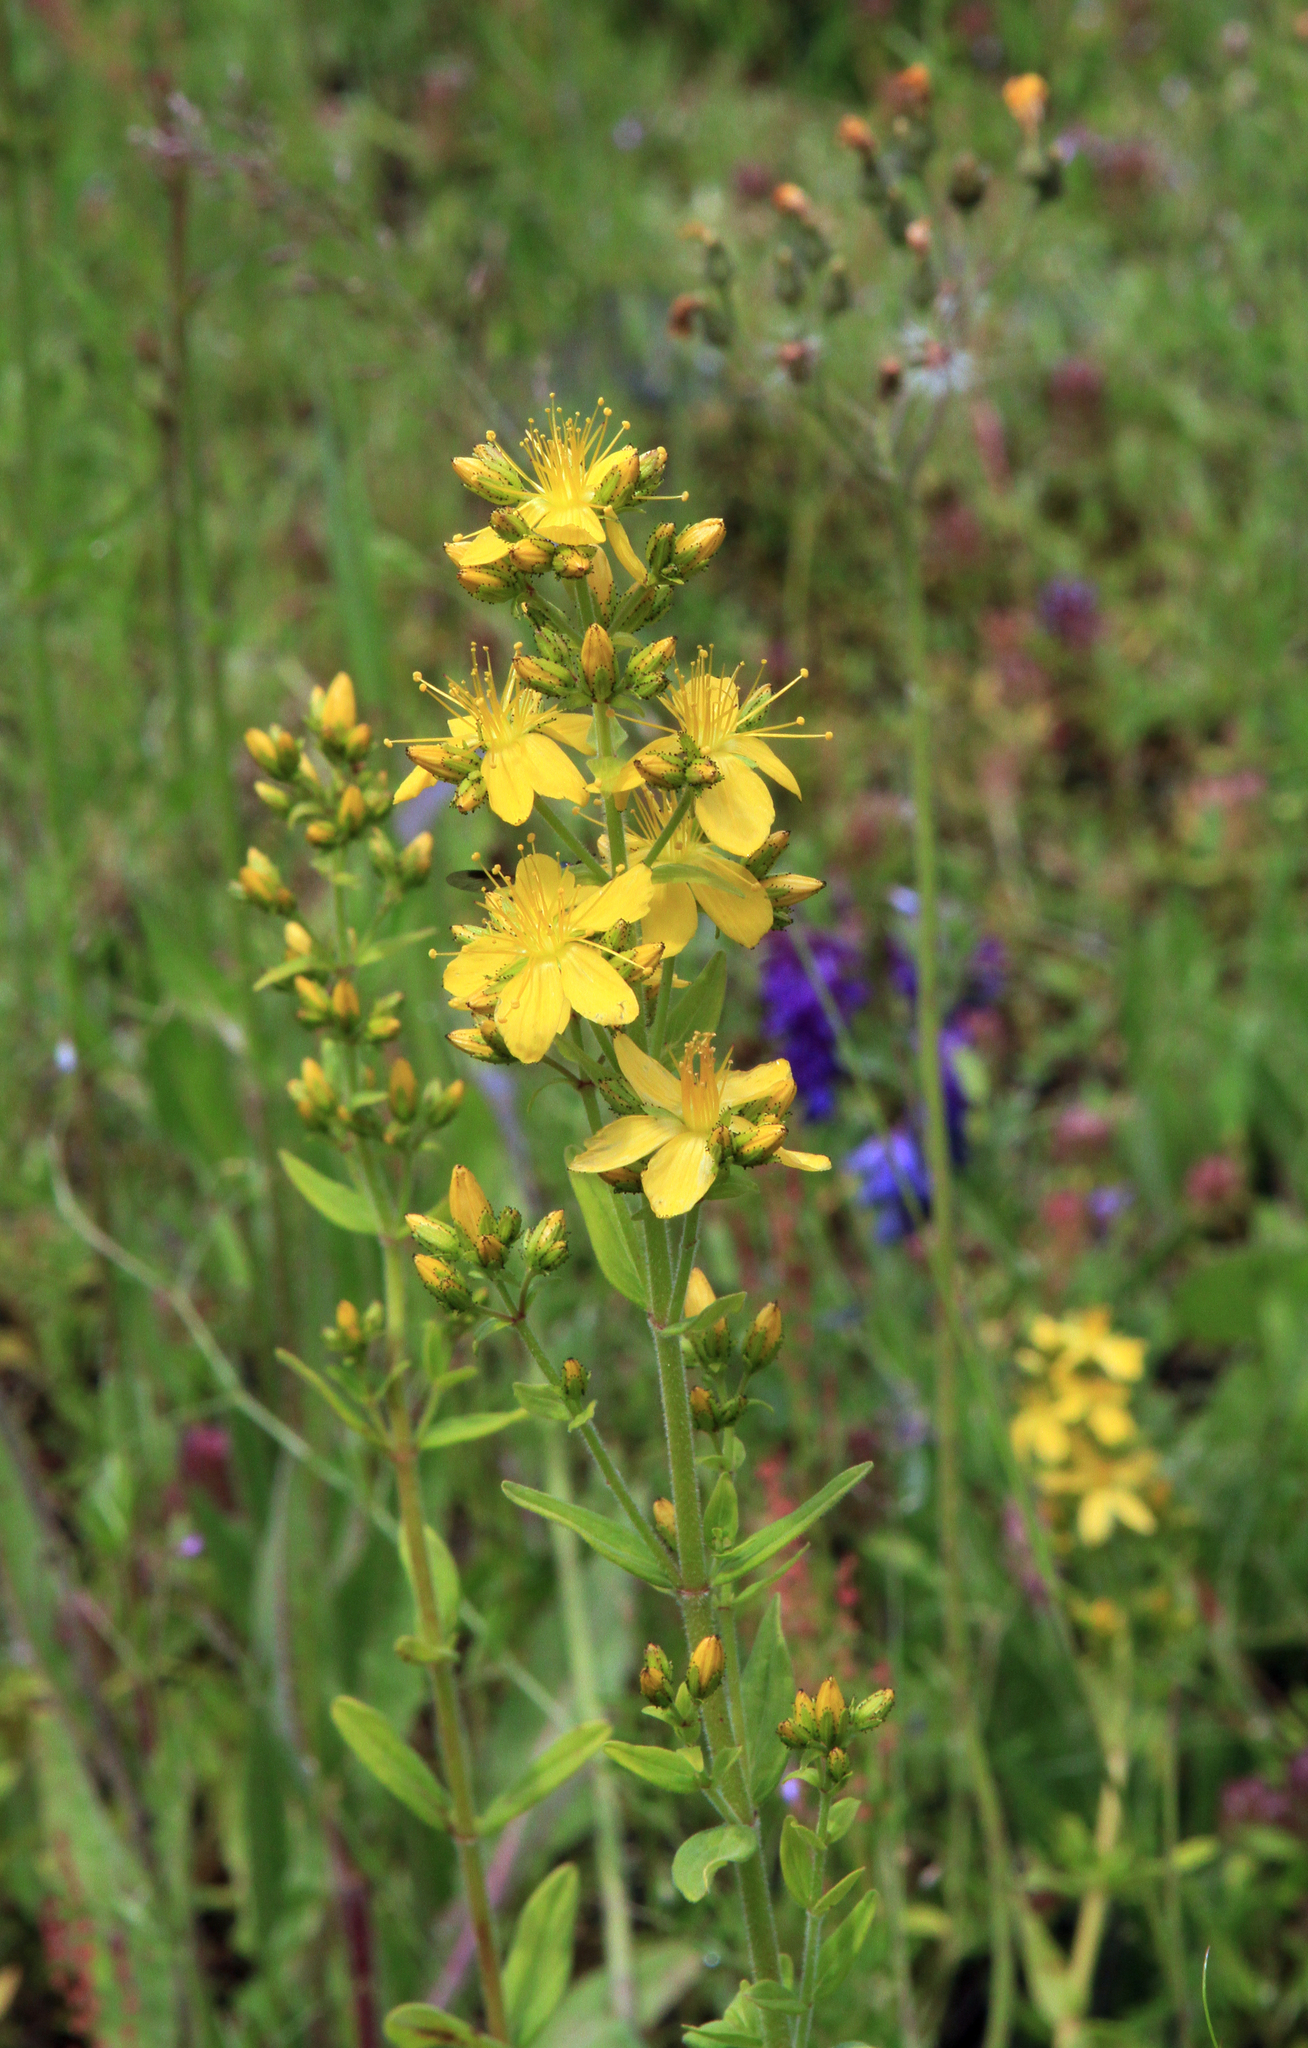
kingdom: Plantae
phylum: Tracheophyta
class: Magnoliopsida
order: Malpighiales
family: Hypericaceae
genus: Hypericum
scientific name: Hypericum hirsutum
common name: Hairy st. john's-wort
